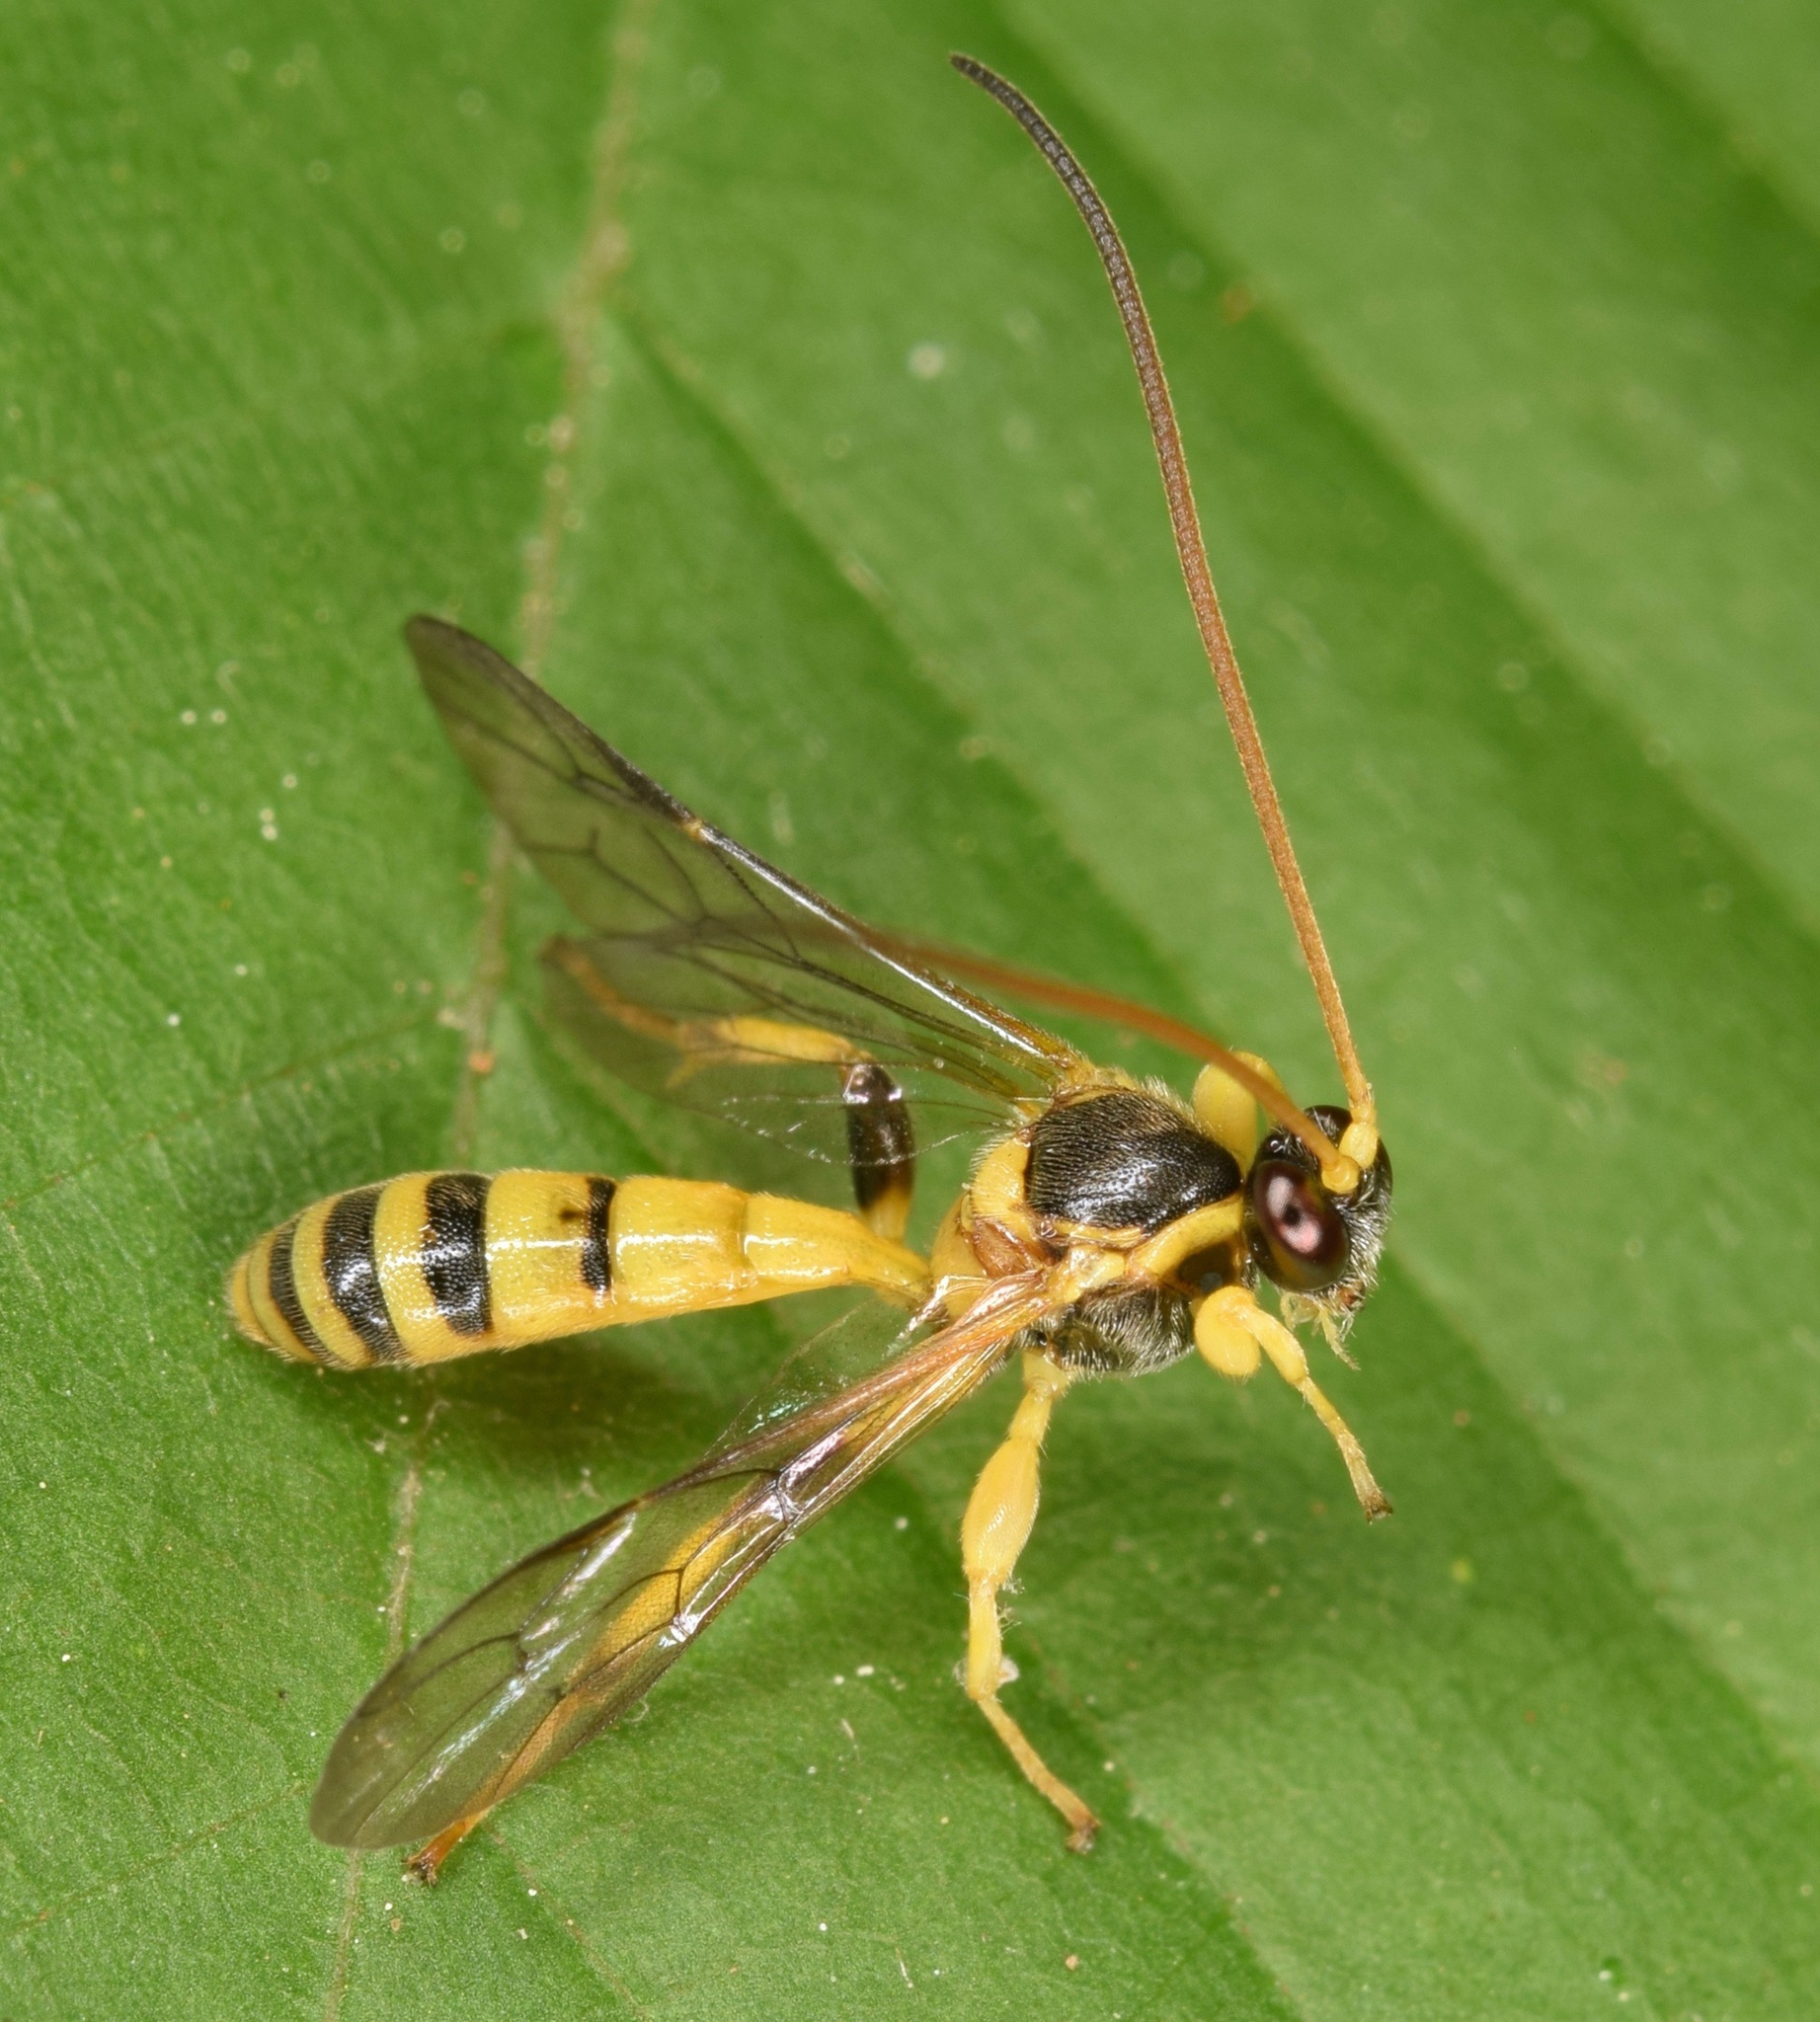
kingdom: Animalia
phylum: Arthropoda
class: Insecta
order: Hymenoptera
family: Ichneumonidae
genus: Colpotrochia
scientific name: Colpotrochia crassipes
